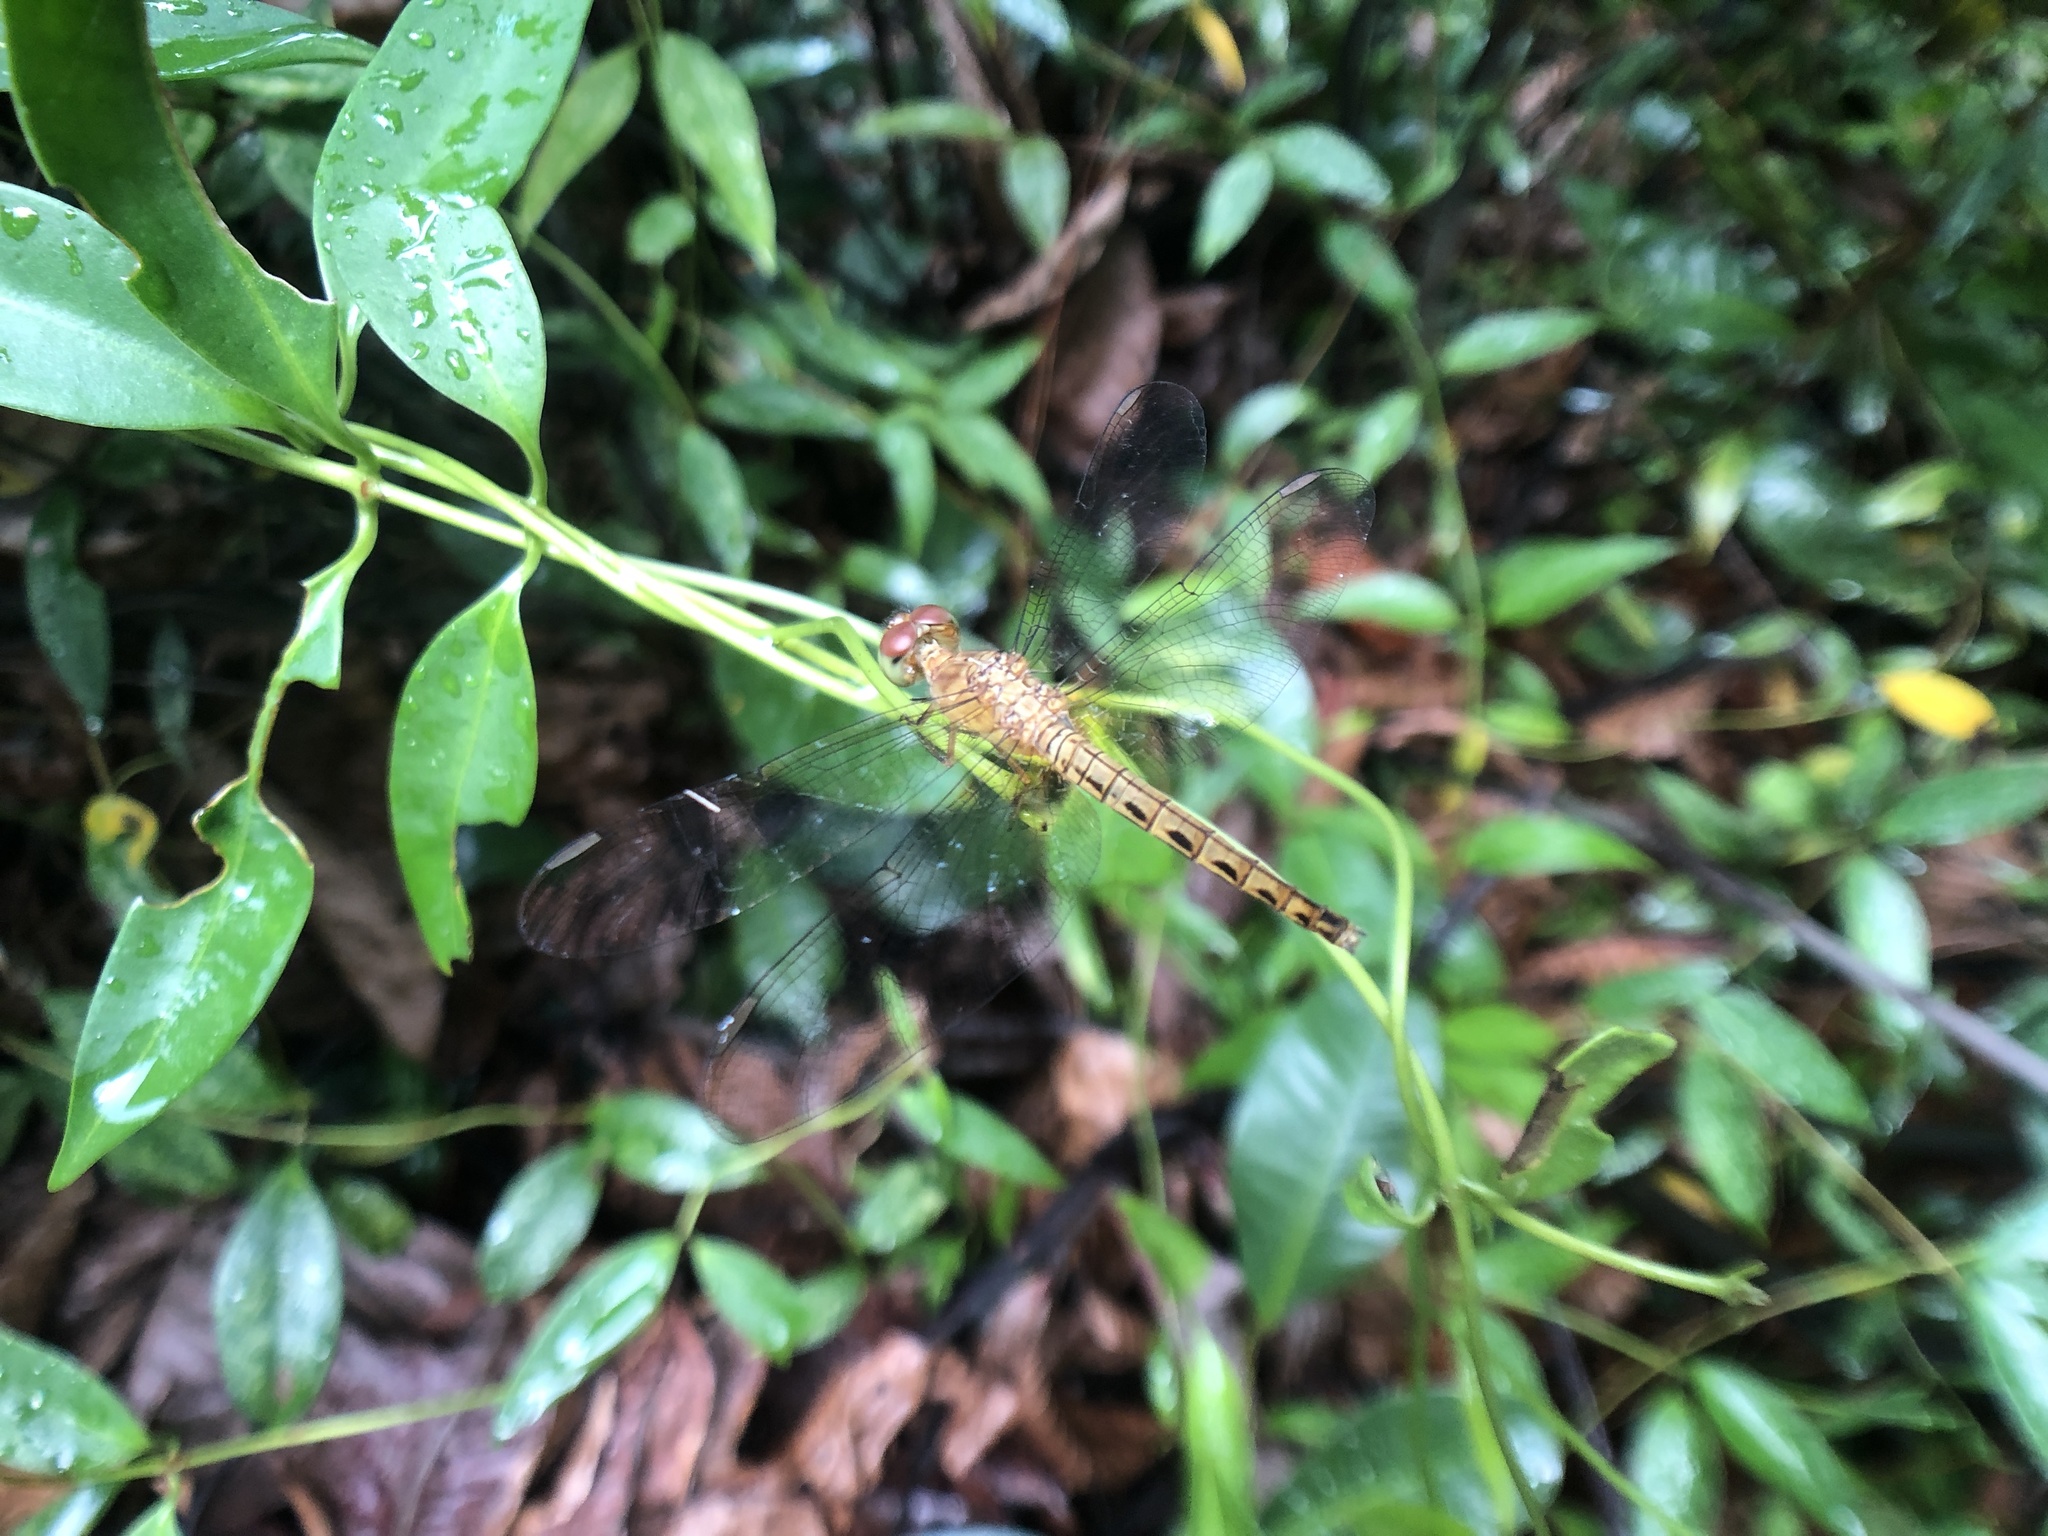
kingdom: Animalia
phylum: Arthropoda
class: Insecta
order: Odonata
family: Libellulidae
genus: Neurothemis
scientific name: Neurothemis fluctuans
